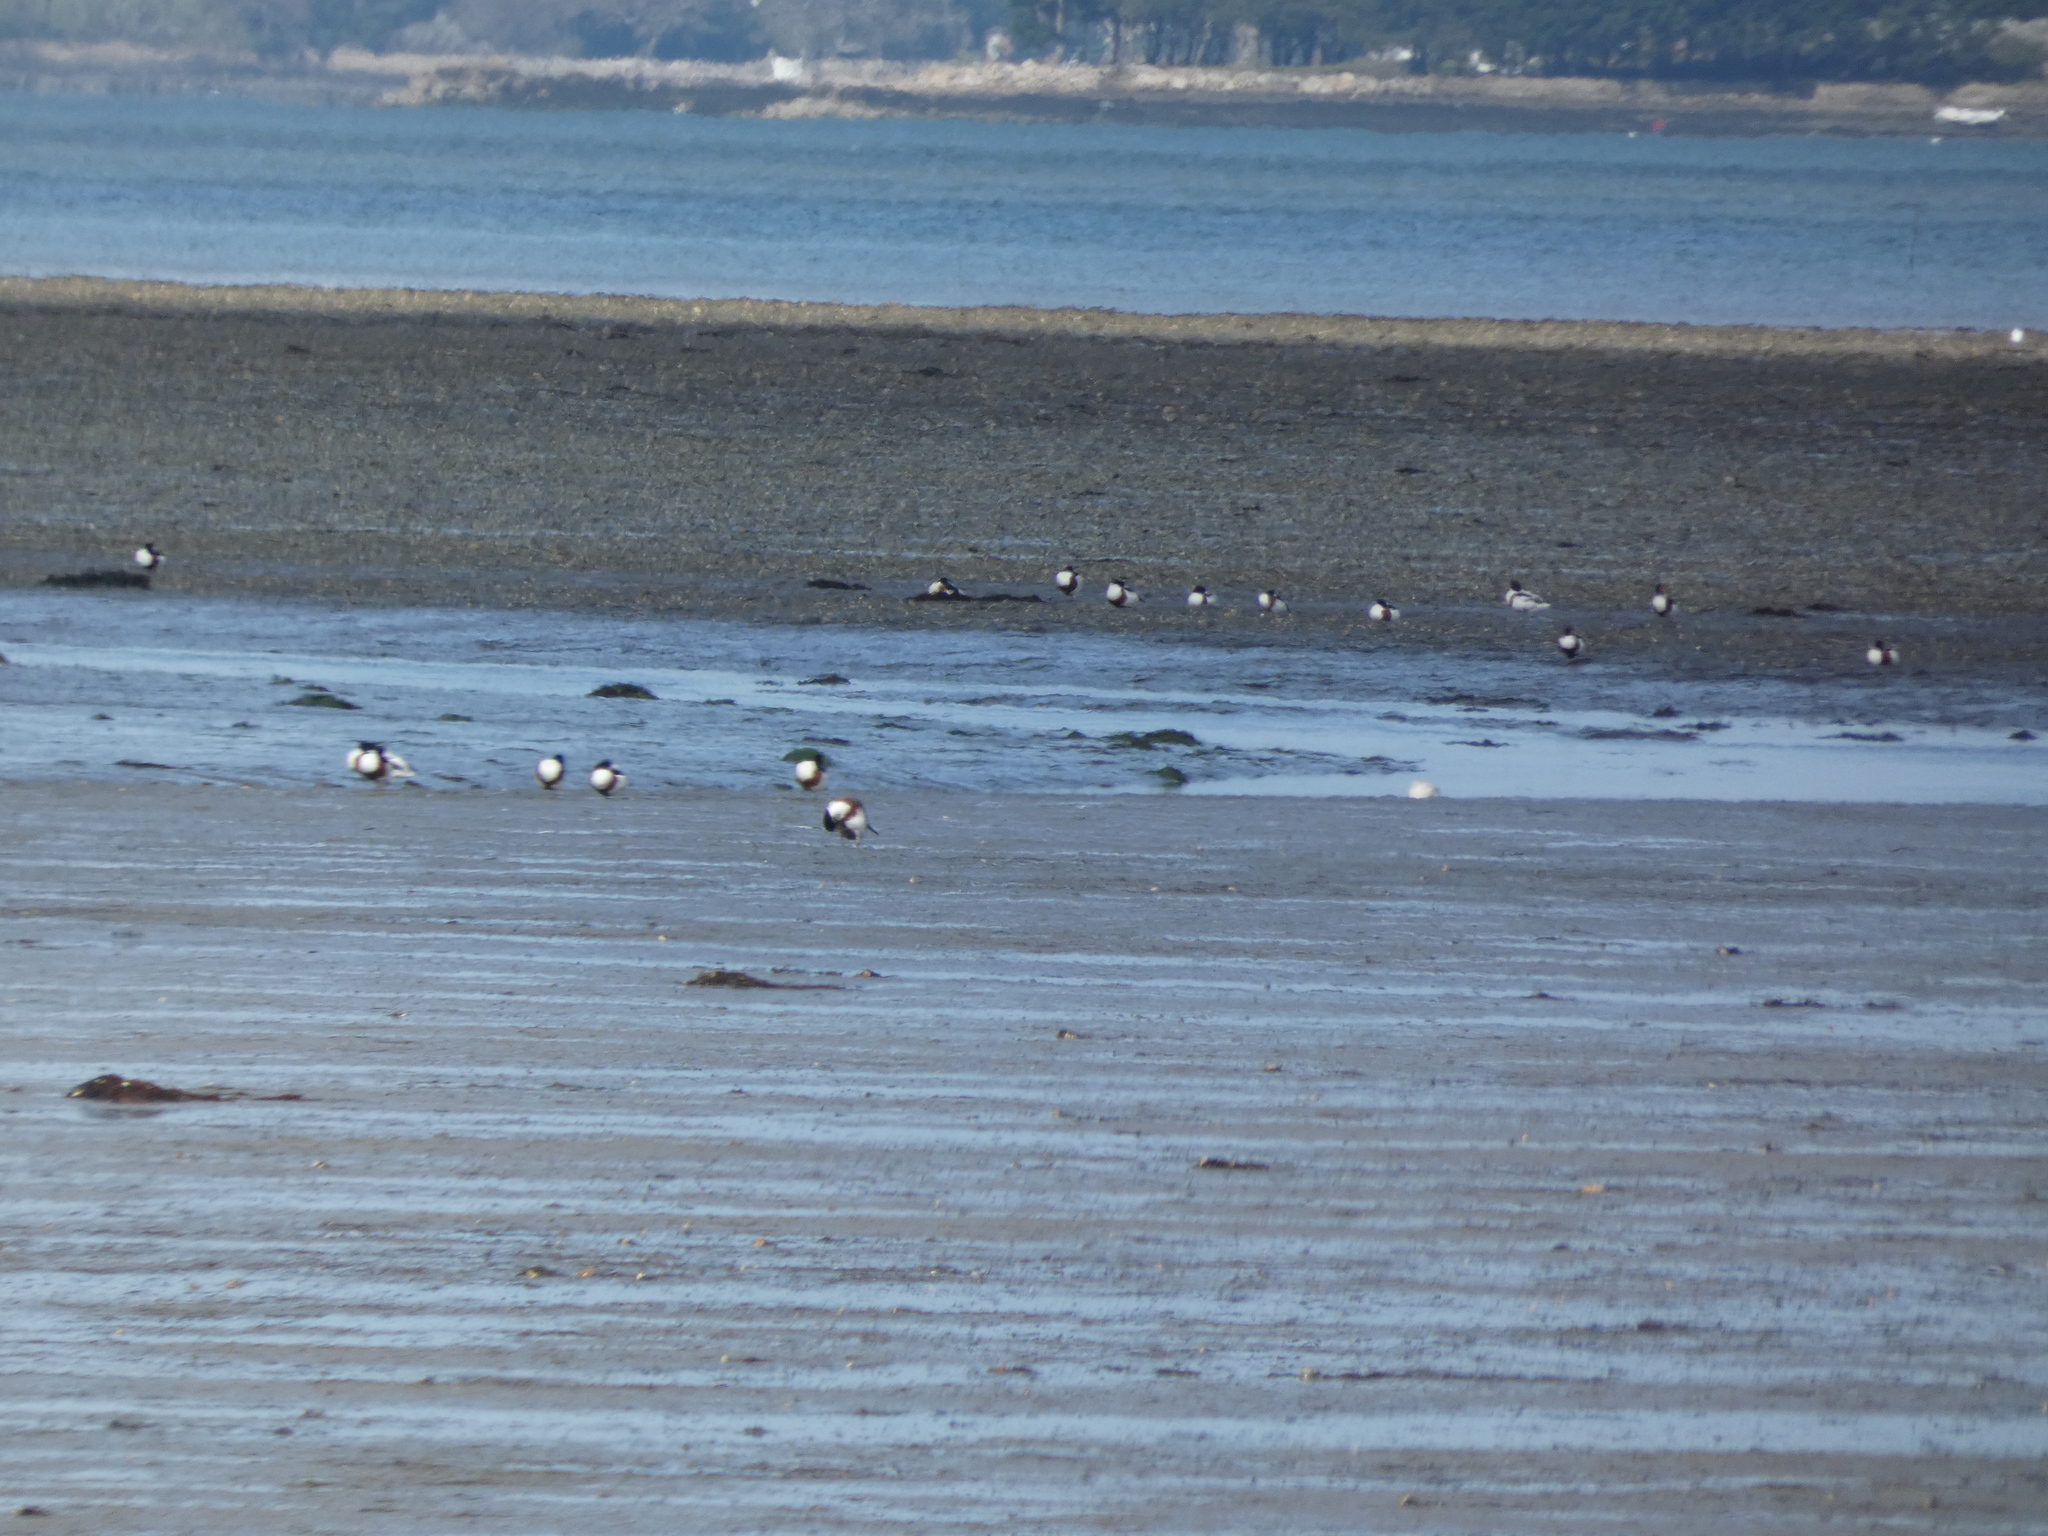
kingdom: Animalia
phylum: Chordata
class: Aves
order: Anseriformes
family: Anatidae
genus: Tadorna
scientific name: Tadorna tadorna
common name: Common shelduck
